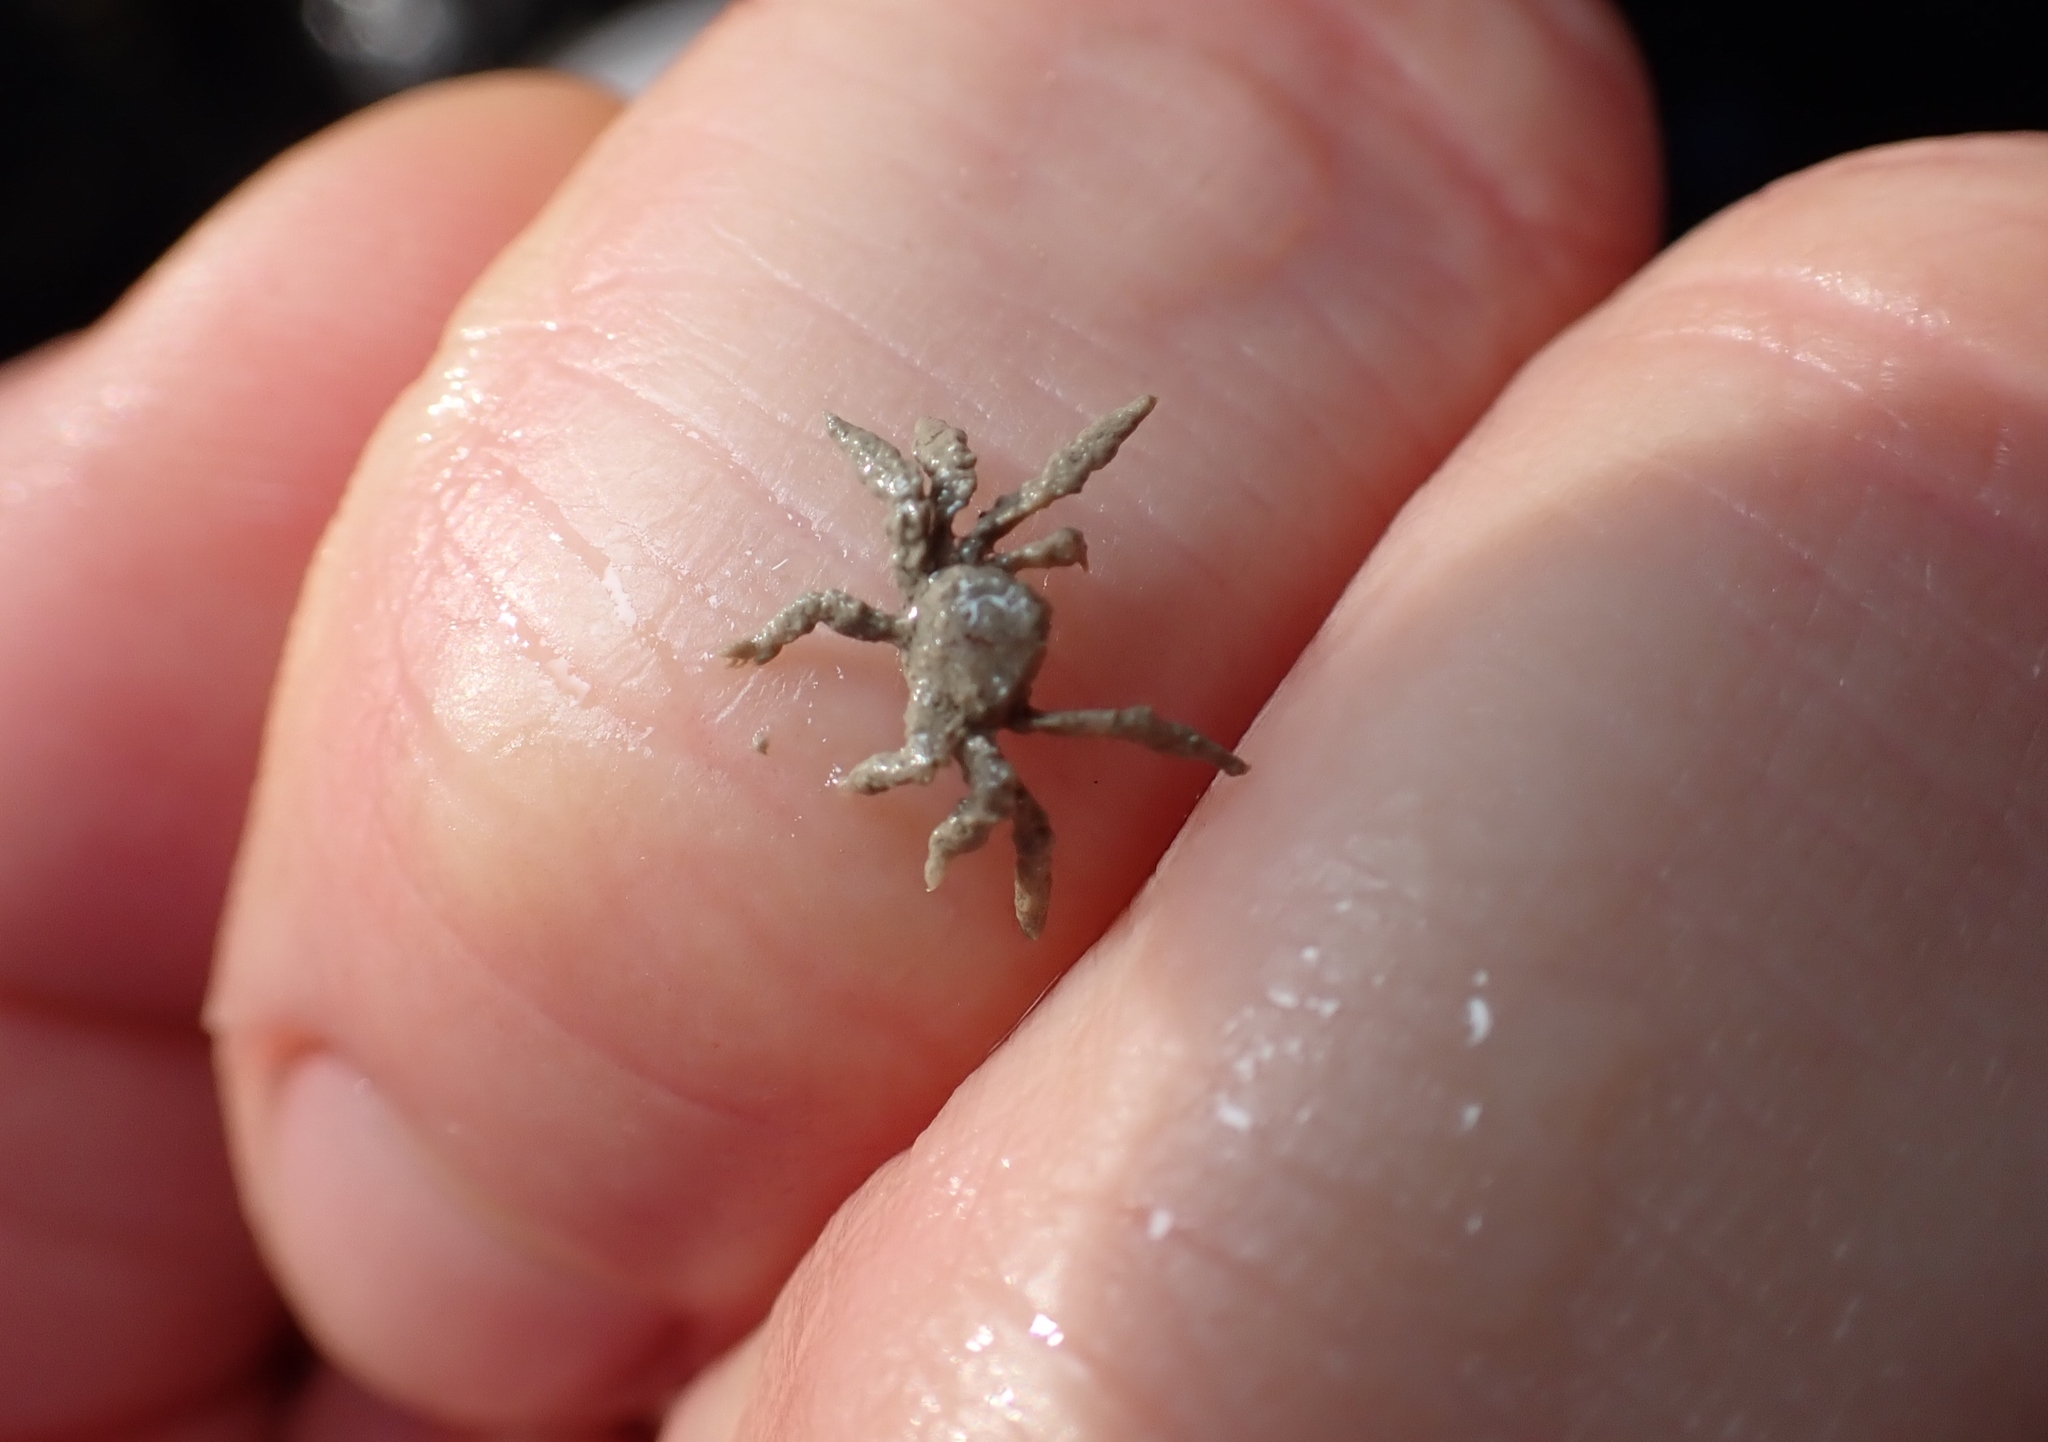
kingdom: Animalia
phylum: Arthropoda
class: Malacostraca
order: Decapoda
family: Hymenosomatidae
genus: Neohymenicus
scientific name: Neohymenicus pubescens
